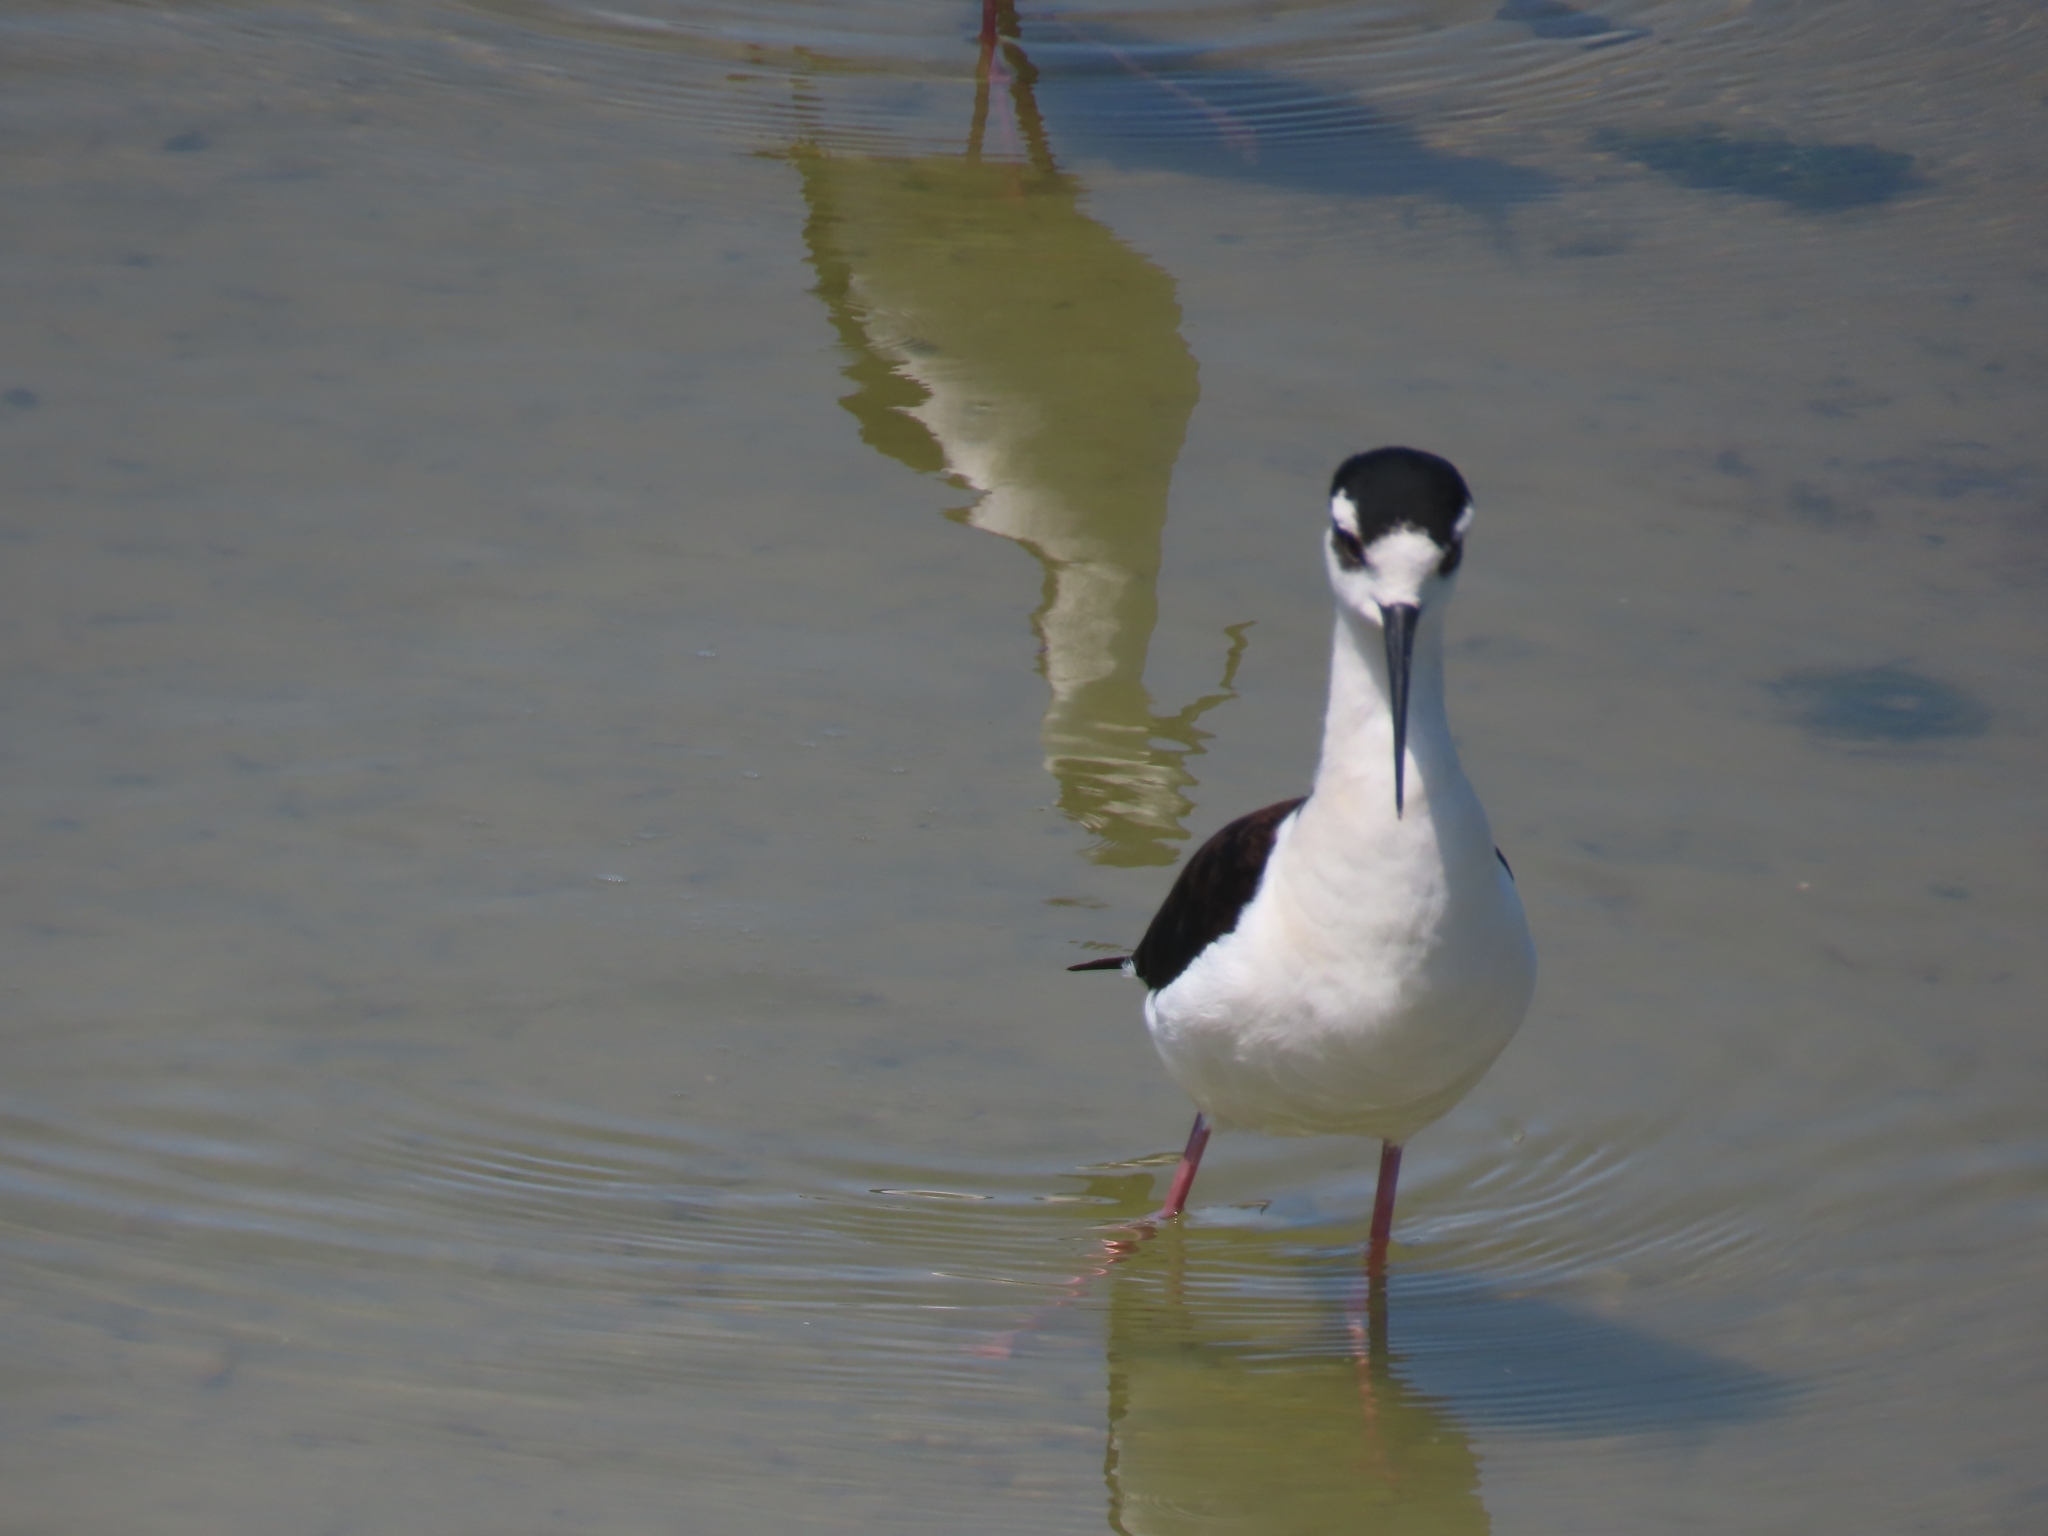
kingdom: Animalia
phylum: Chordata
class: Aves
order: Charadriiformes
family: Recurvirostridae
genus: Himantopus
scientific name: Himantopus mexicanus
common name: Black-necked stilt
